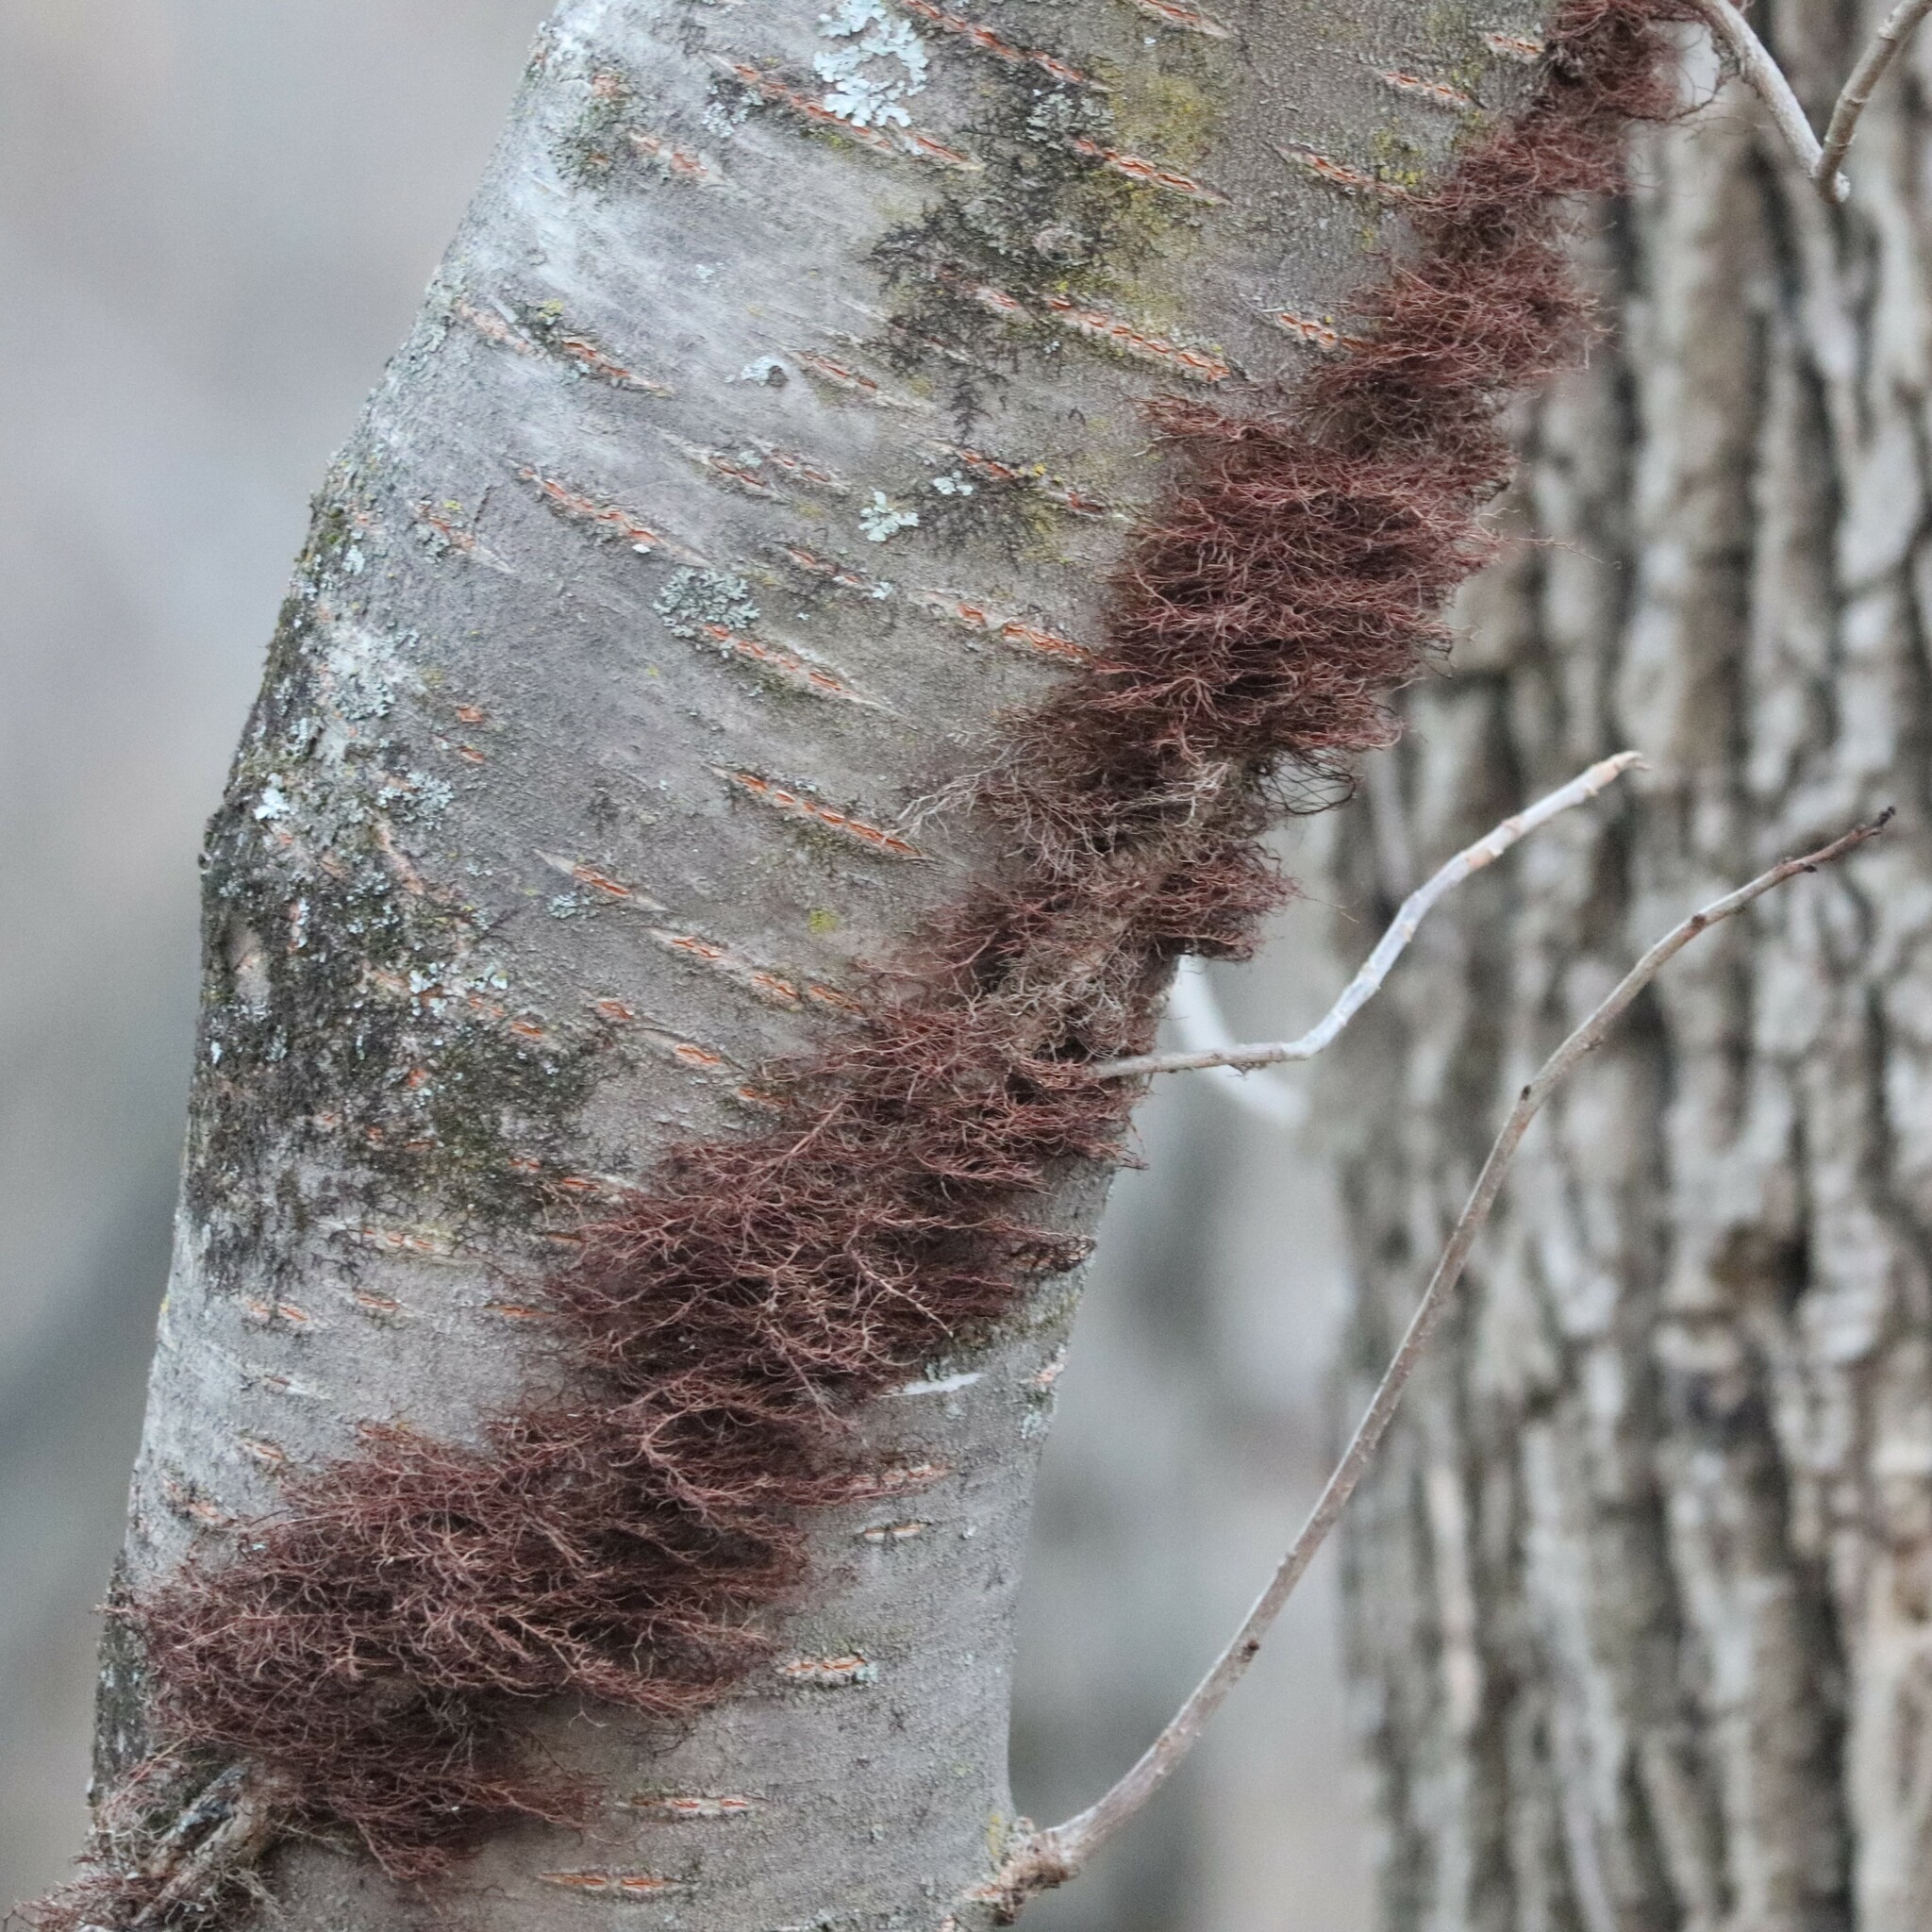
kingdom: Plantae
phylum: Tracheophyta
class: Magnoliopsida
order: Sapindales
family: Anacardiaceae
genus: Toxicodendron
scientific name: Toxicodendron radicans
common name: Poison ivy
